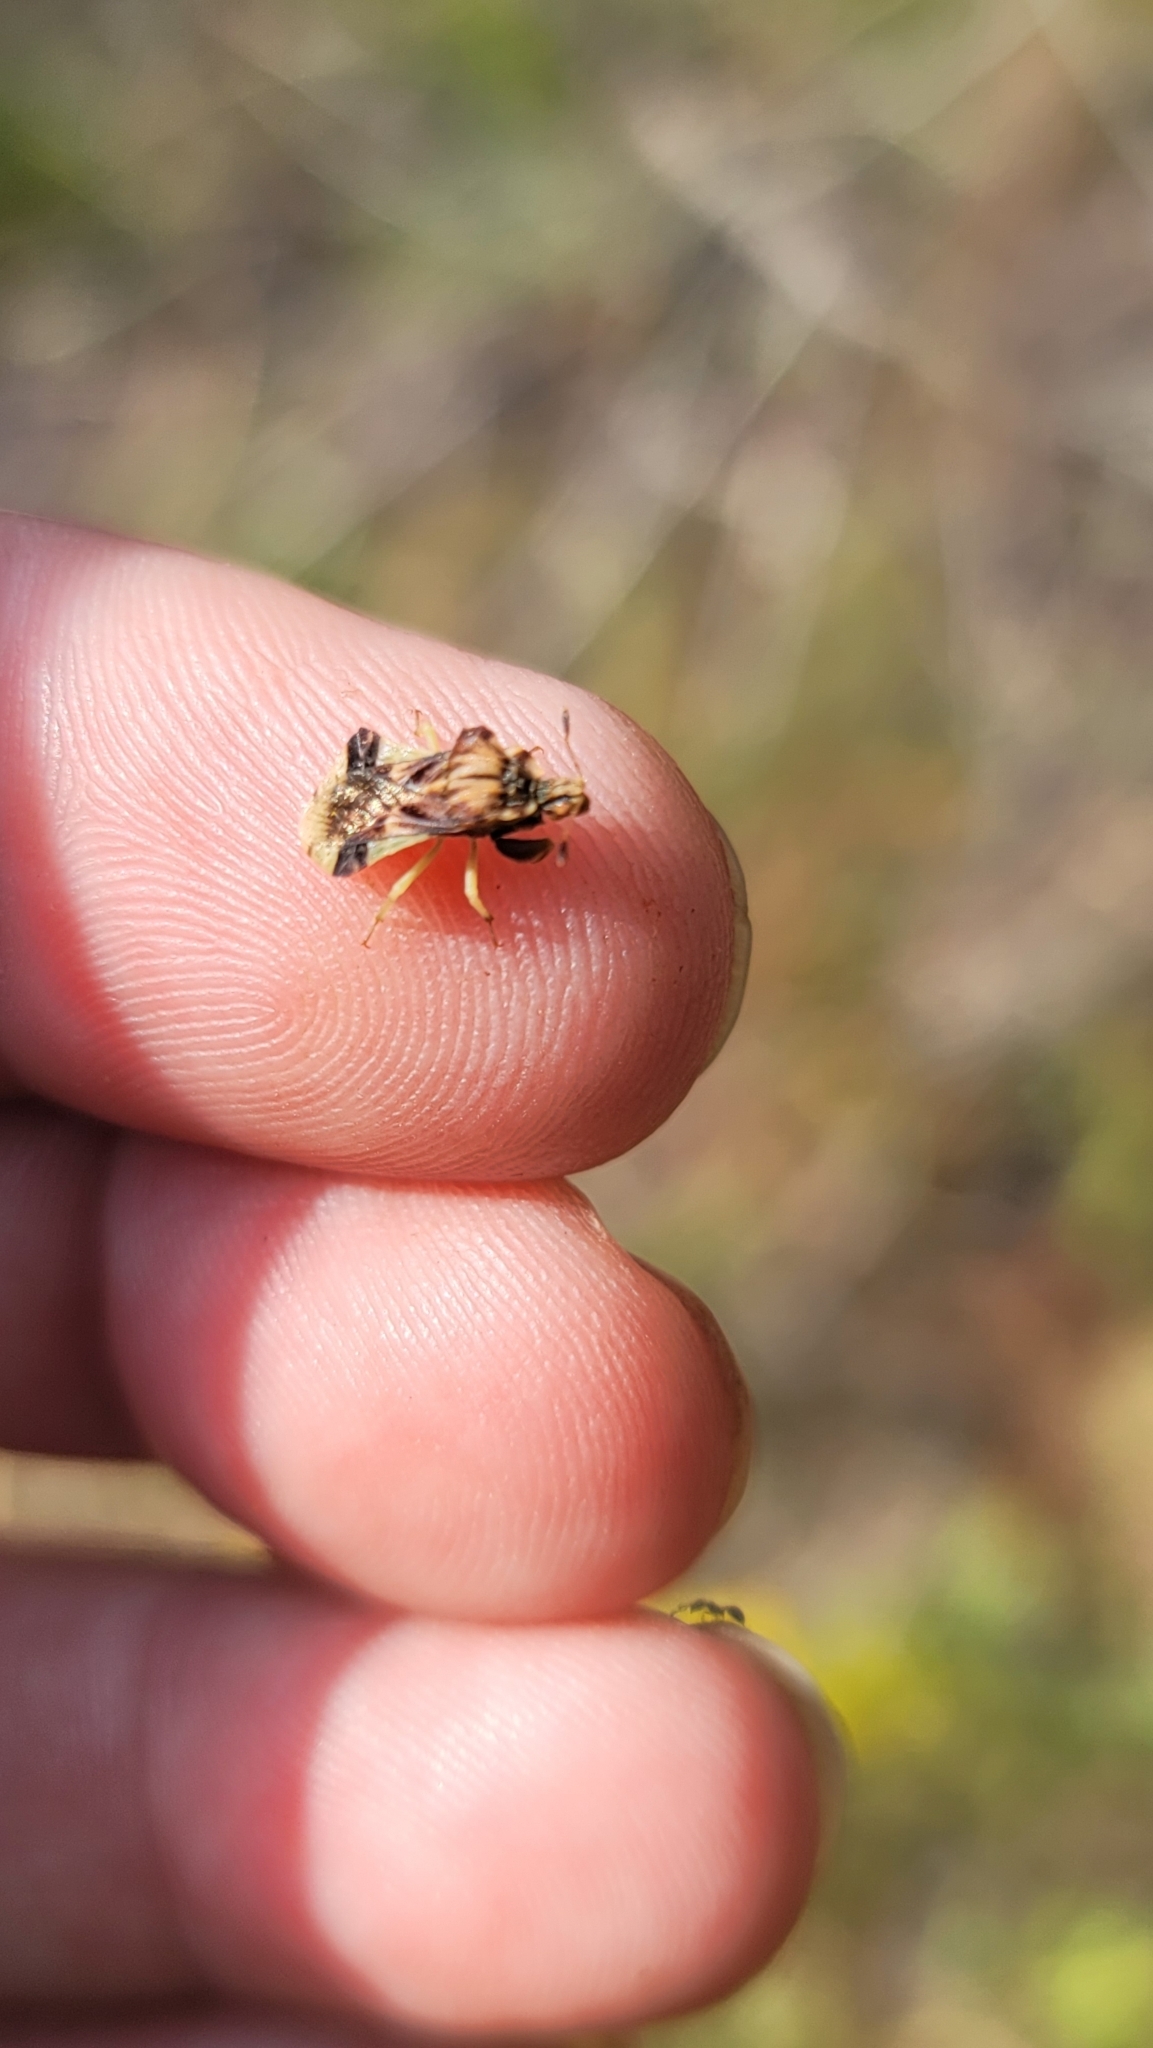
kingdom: Animalia
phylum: Arthropoda
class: Insecta
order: Hemiptera
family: Reduviidae
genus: Phymata
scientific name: Phymata fasciata
